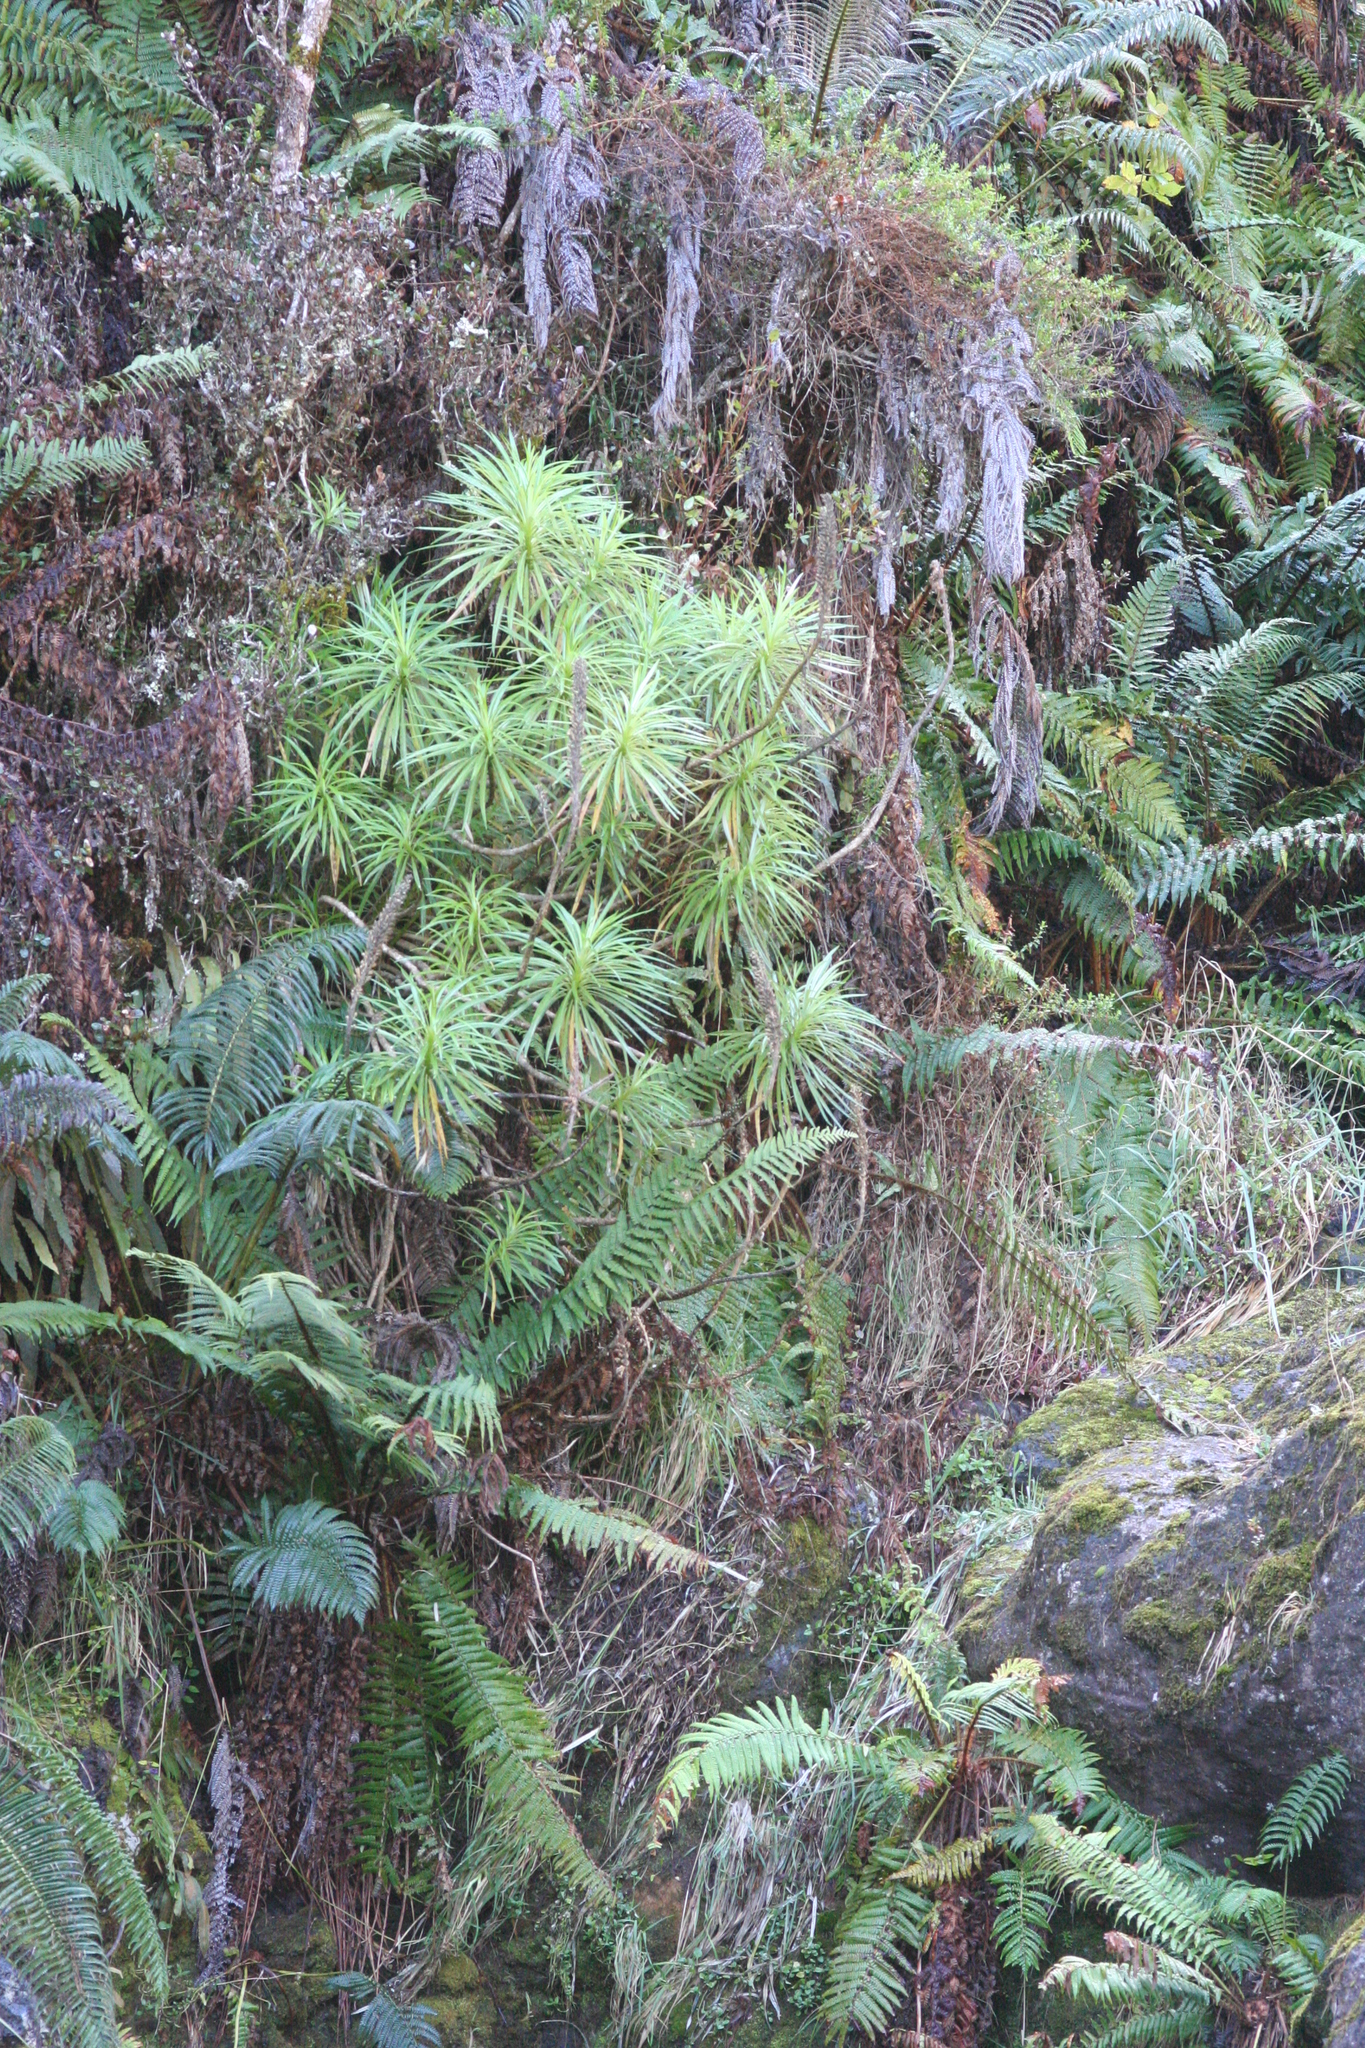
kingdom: Plantae
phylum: Tracheophyta
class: Magnoliopsida
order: Asterales
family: Campanulaceae
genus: Lobelia
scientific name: Lobelia grayana
